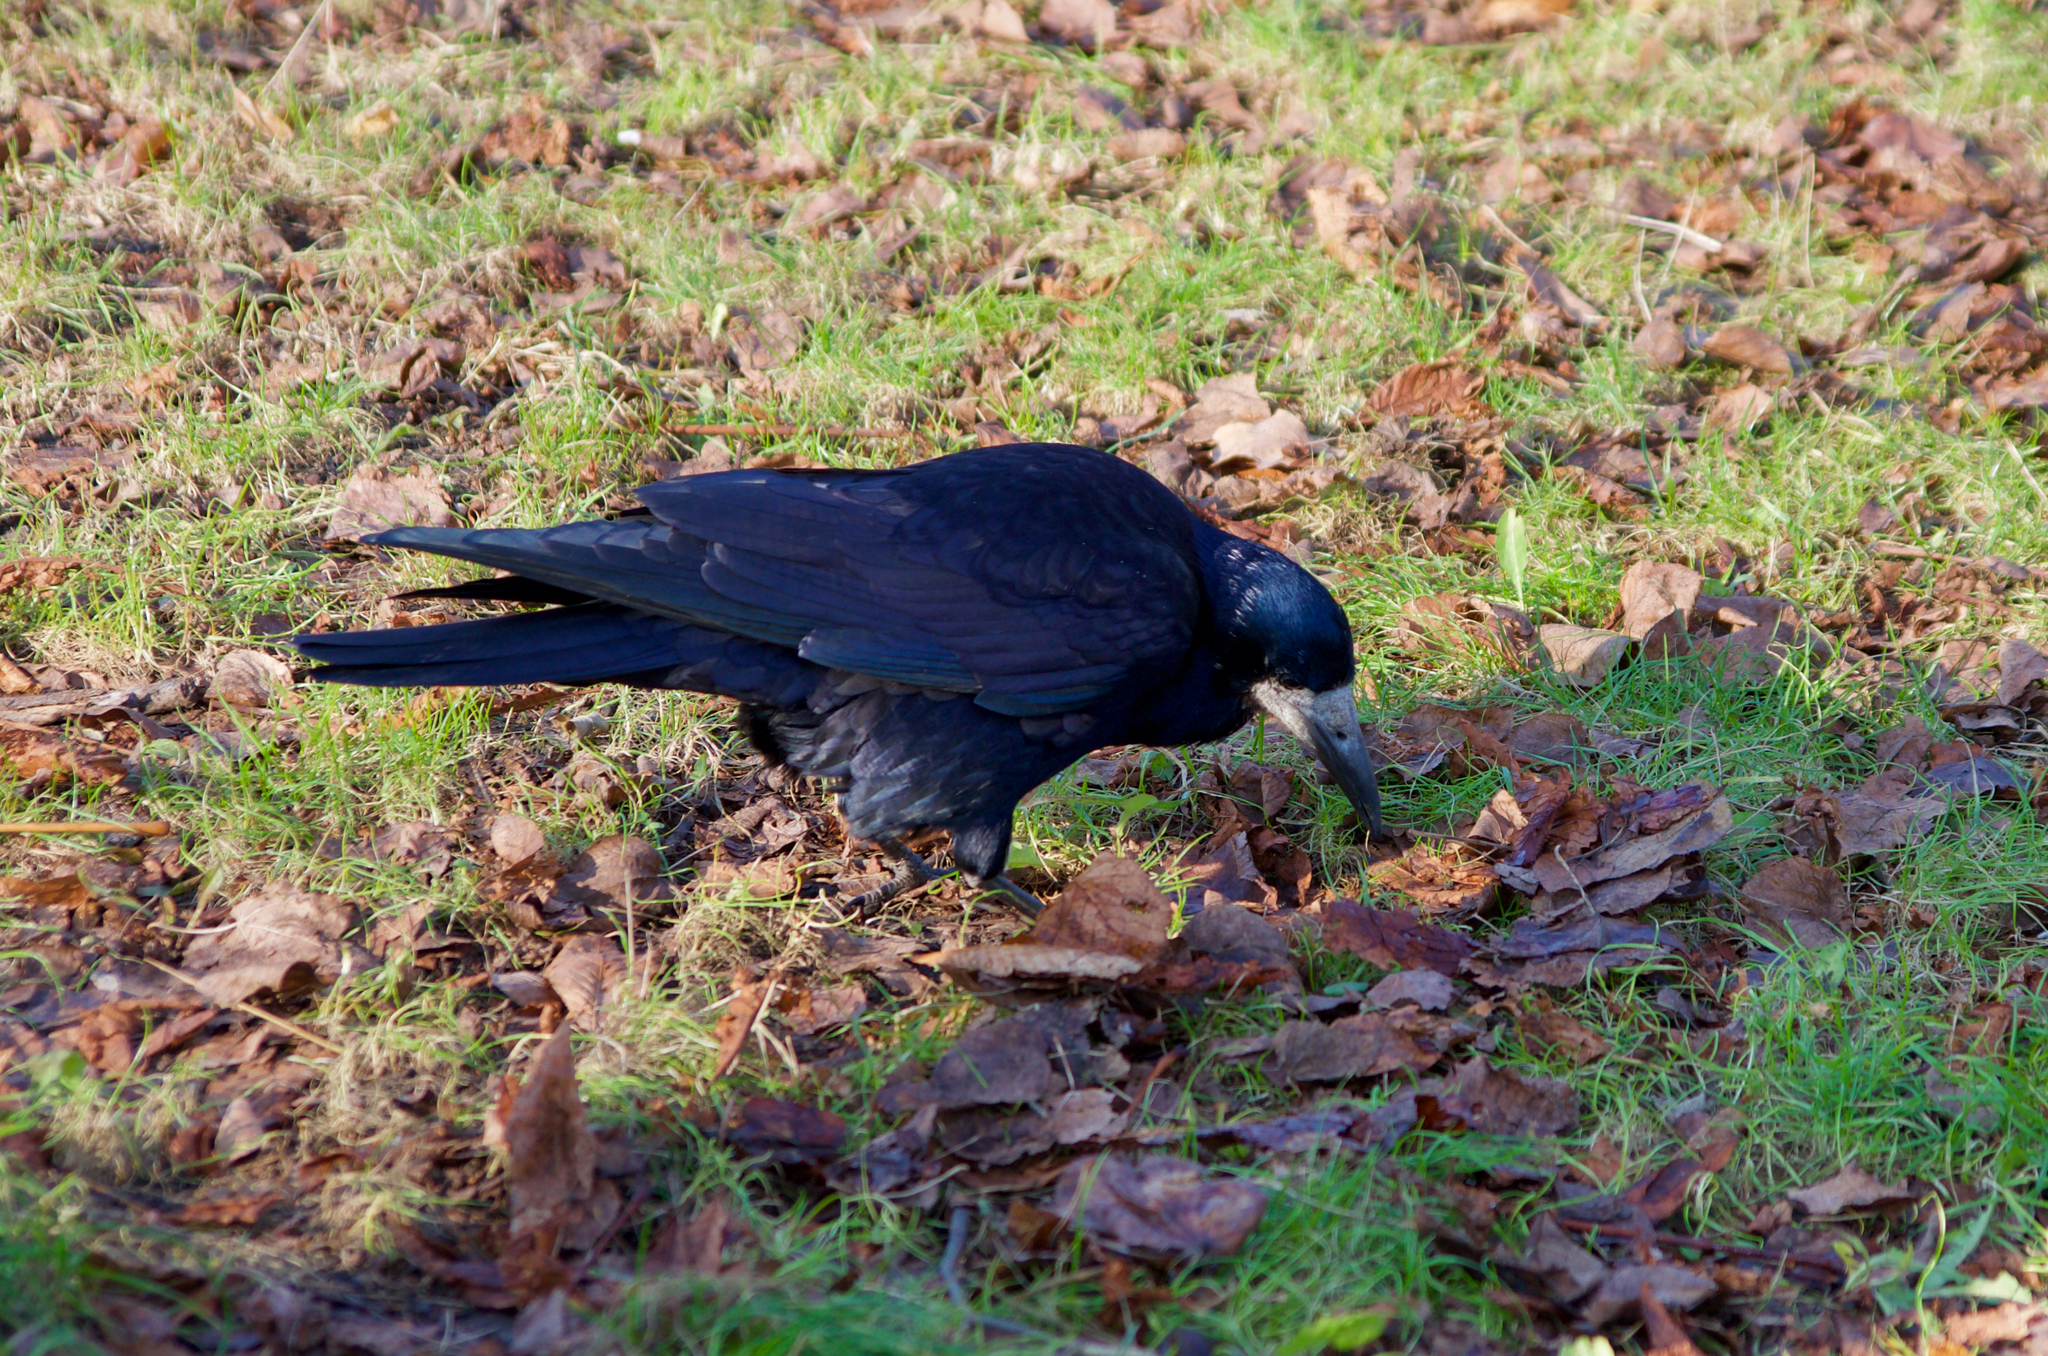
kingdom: Animalia
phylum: Chordata
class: Aves
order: Passeriformes
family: Corvidae
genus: Corvus
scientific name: Corvus frugilegus
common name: Rook
